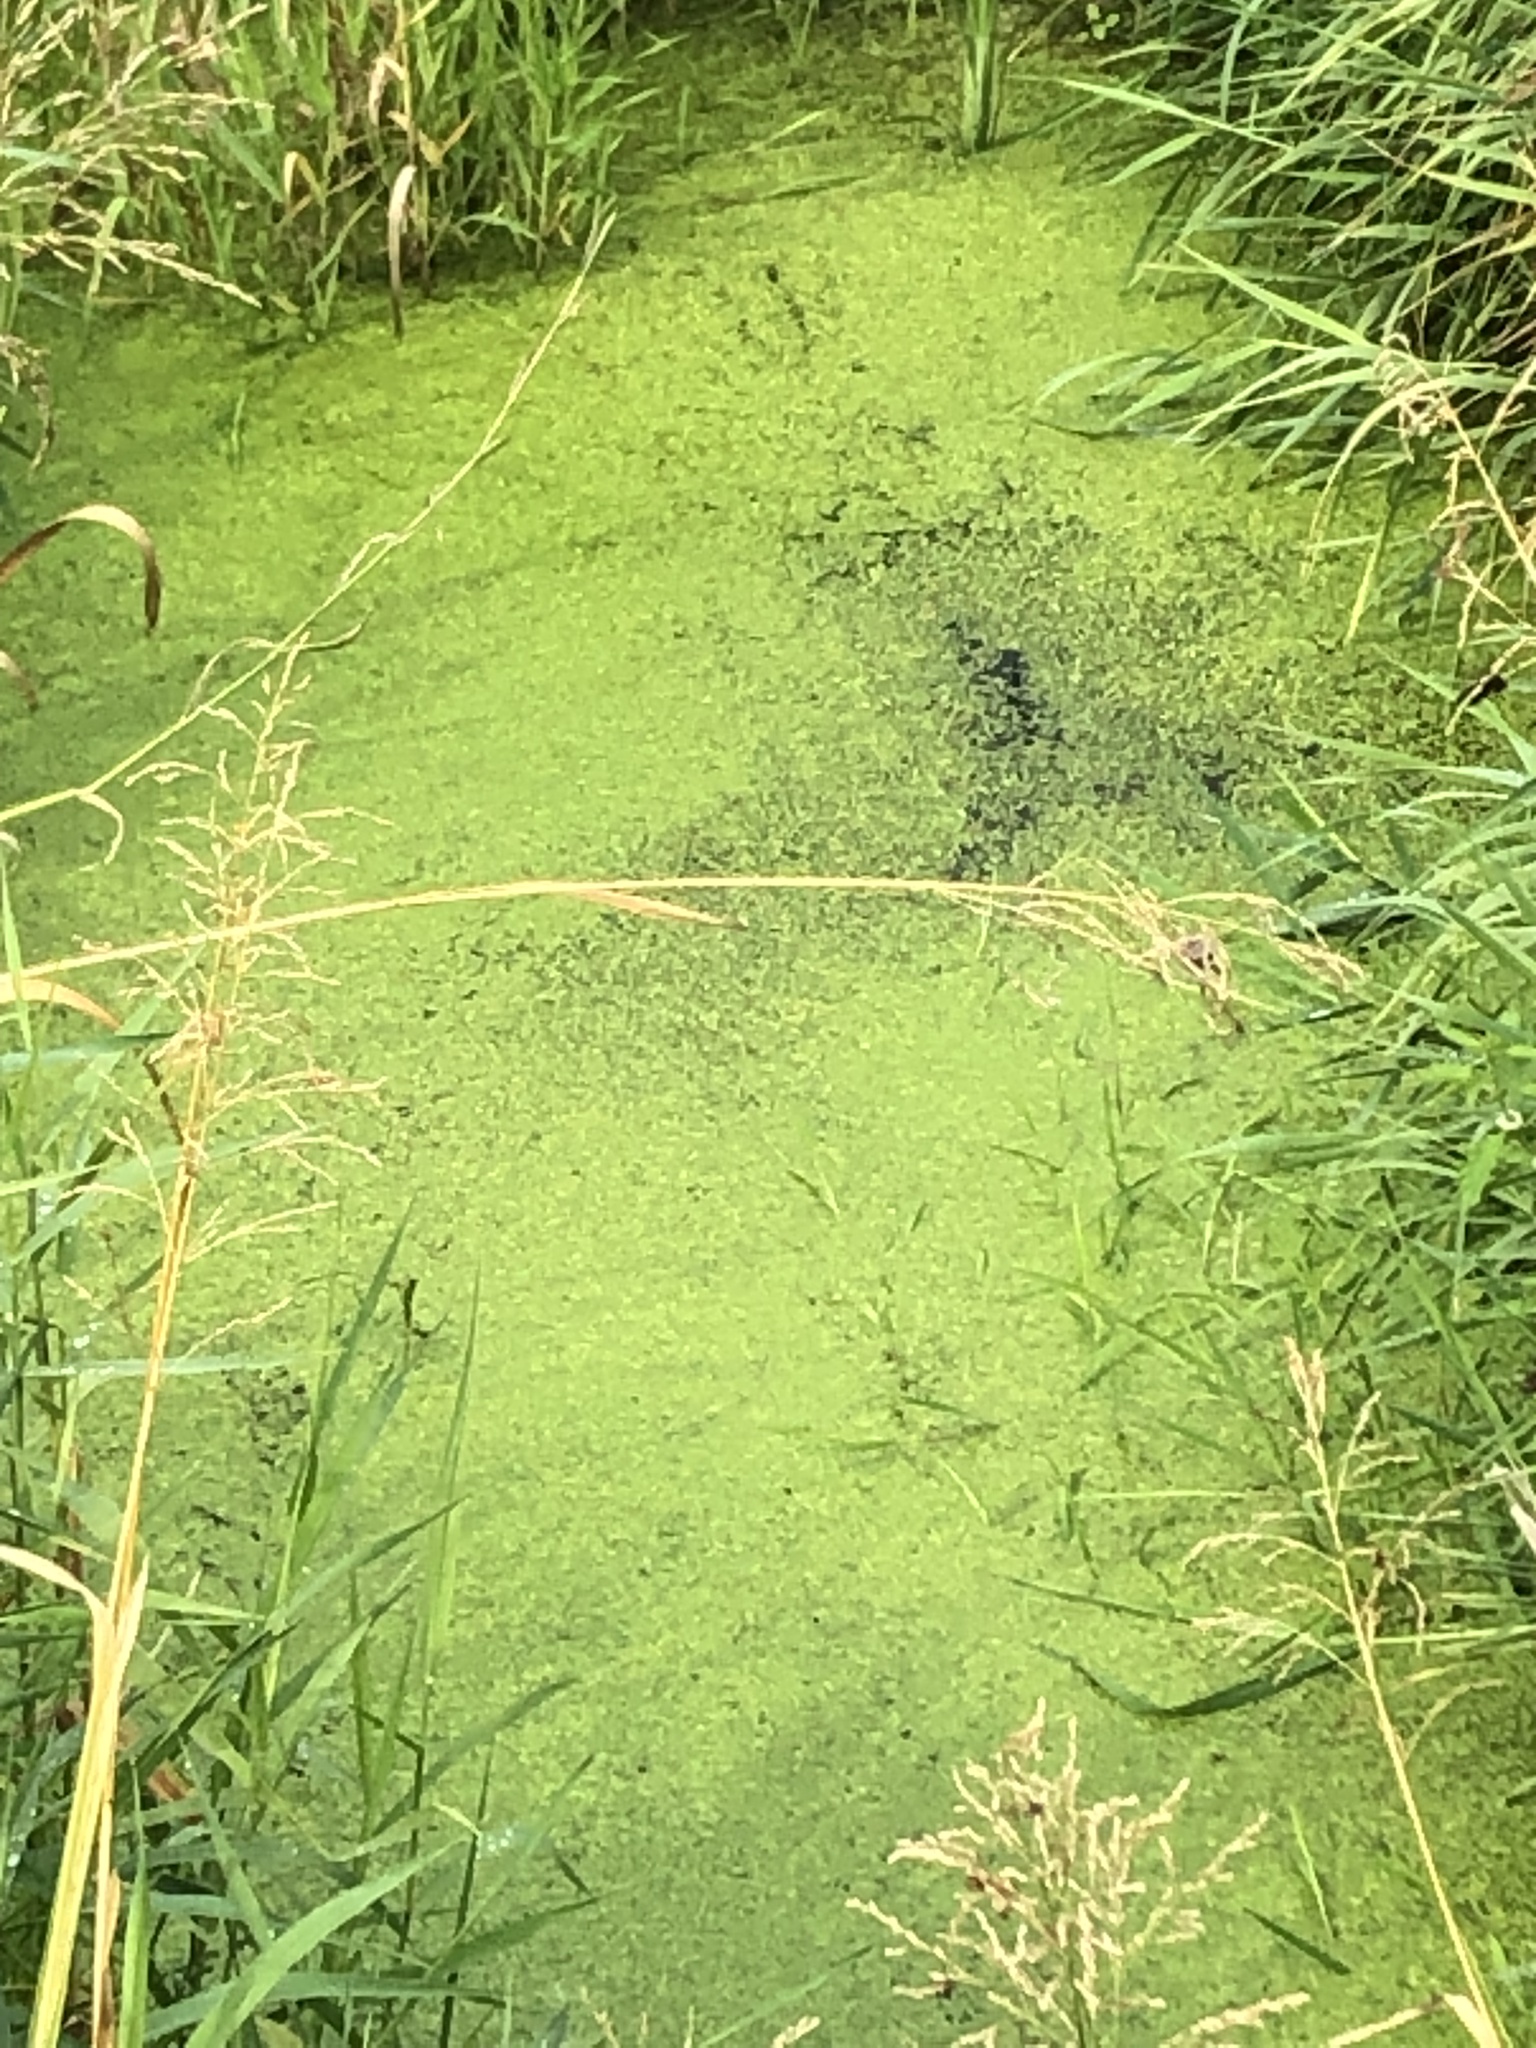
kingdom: Plantae
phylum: Tracheophyta
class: Liliopsida
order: Alismatales
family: Araceae
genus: Lemna
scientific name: Lemna minor
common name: Common duckweed
